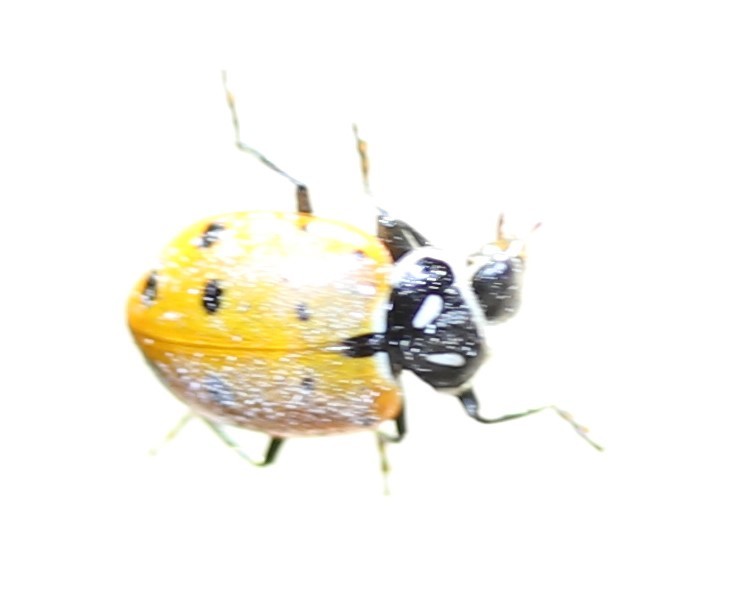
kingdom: Animalia
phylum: Arthropoda
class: Insecta
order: Coleoptera
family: Coccinellidae
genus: Hippodamia
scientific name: Hippodamia convergens
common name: Convergent lady beetle
